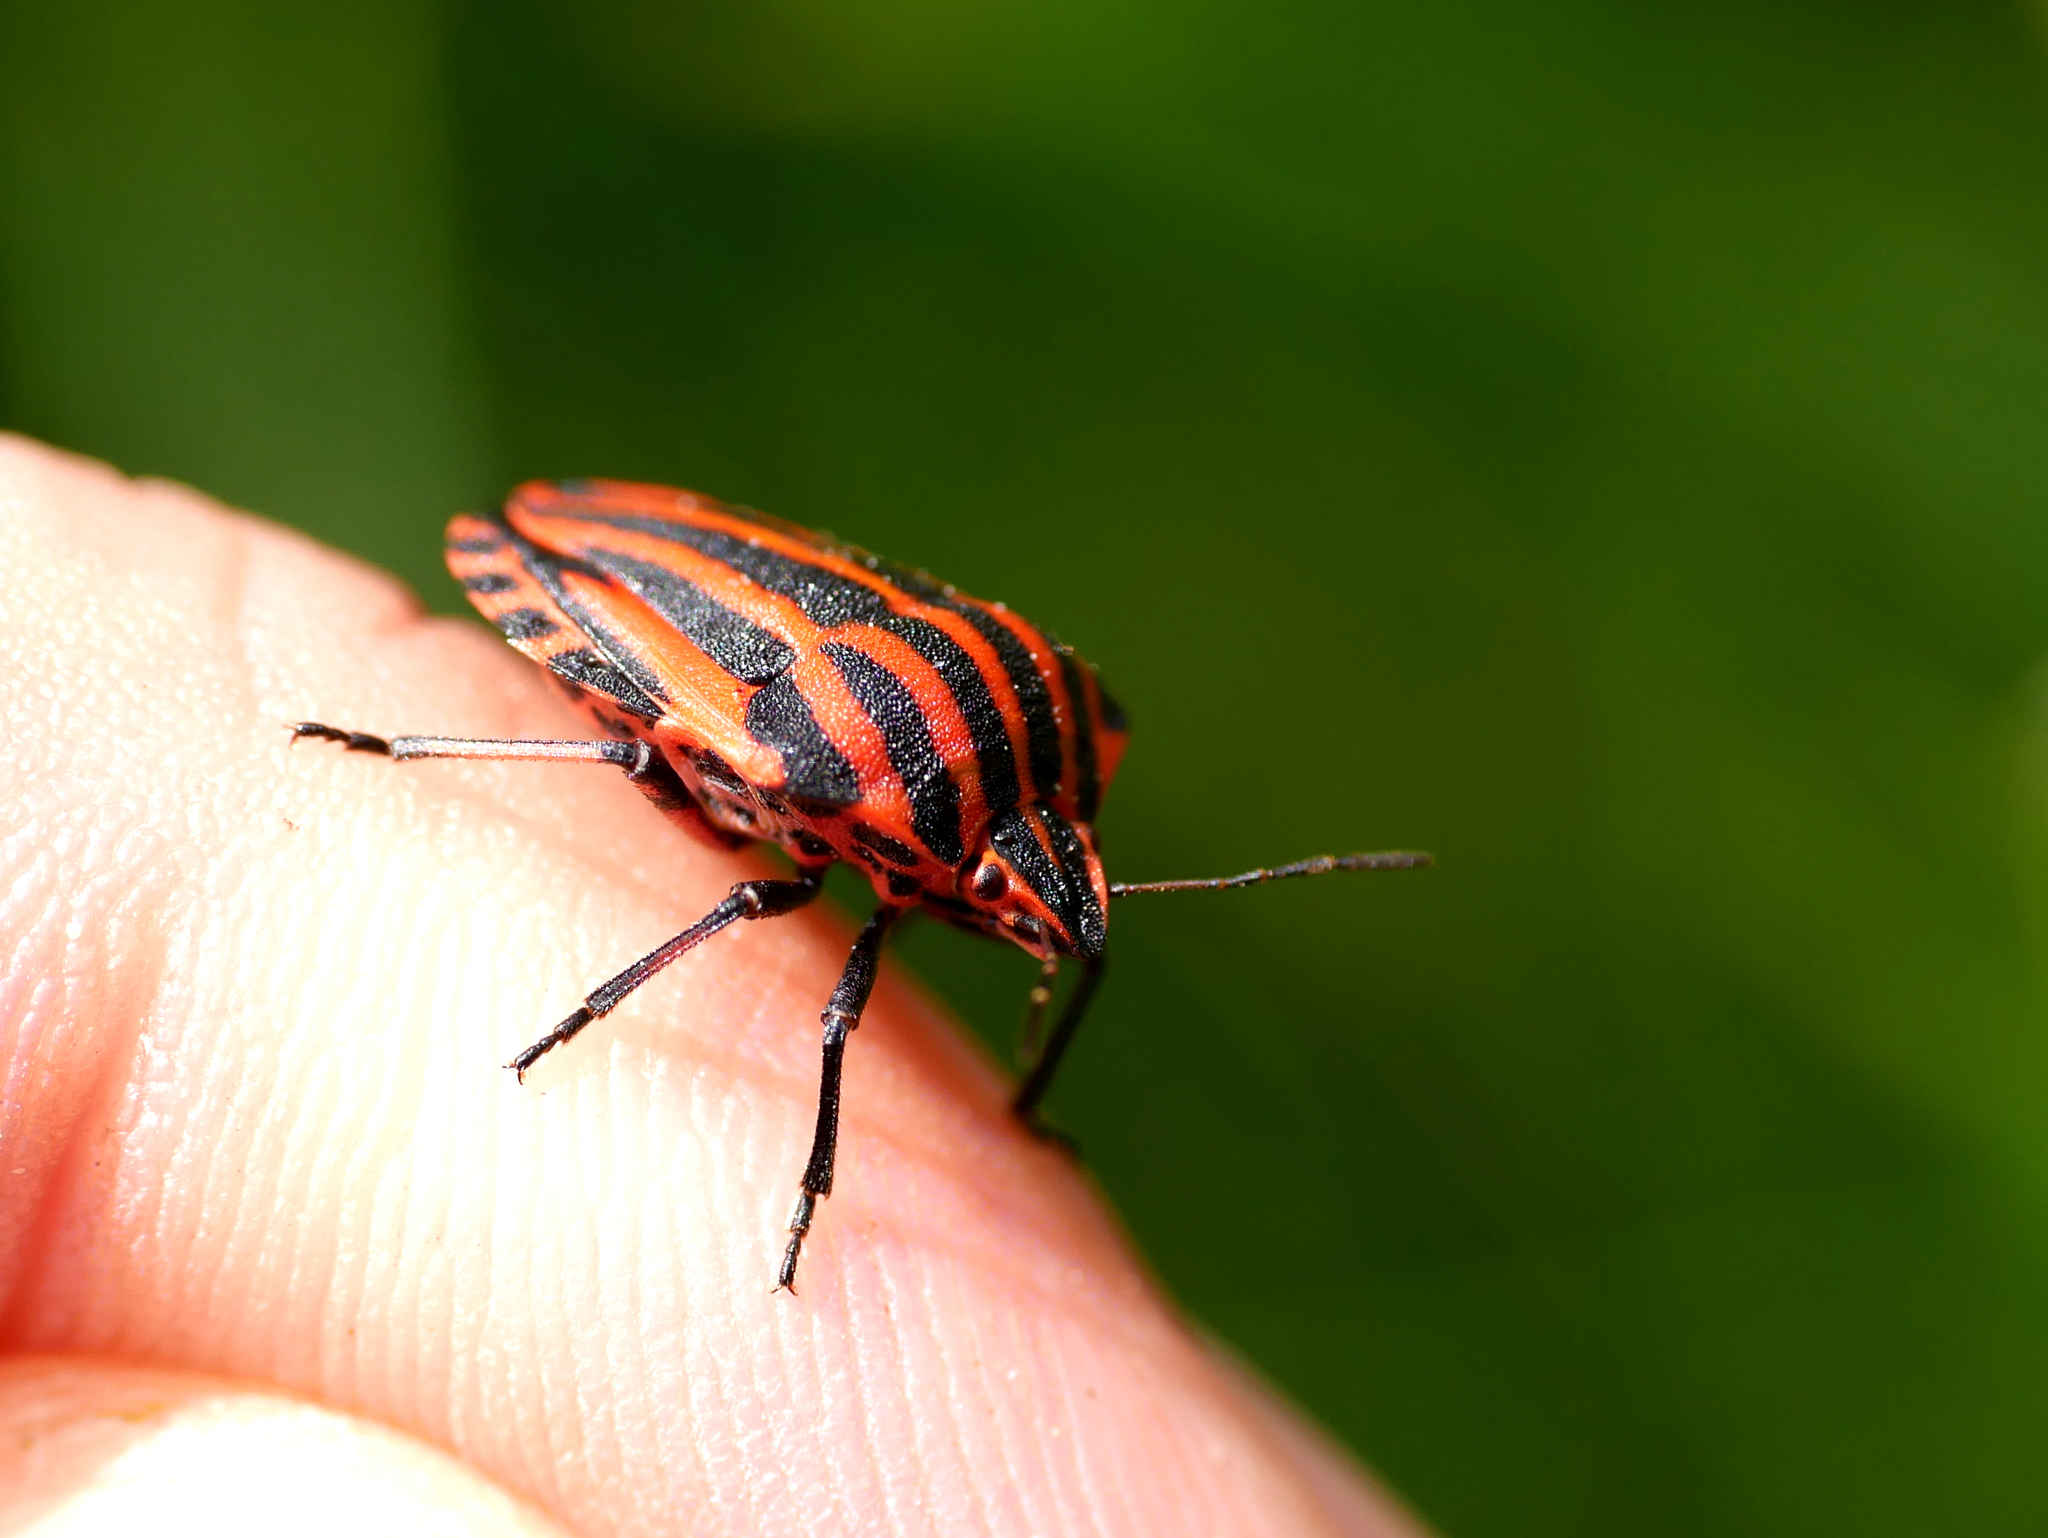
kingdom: Animalia
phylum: Arthropoda
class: Insecta
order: Hemiptera
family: Pentatomidae
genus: Graphosoma
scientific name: Graphosoma italicum
